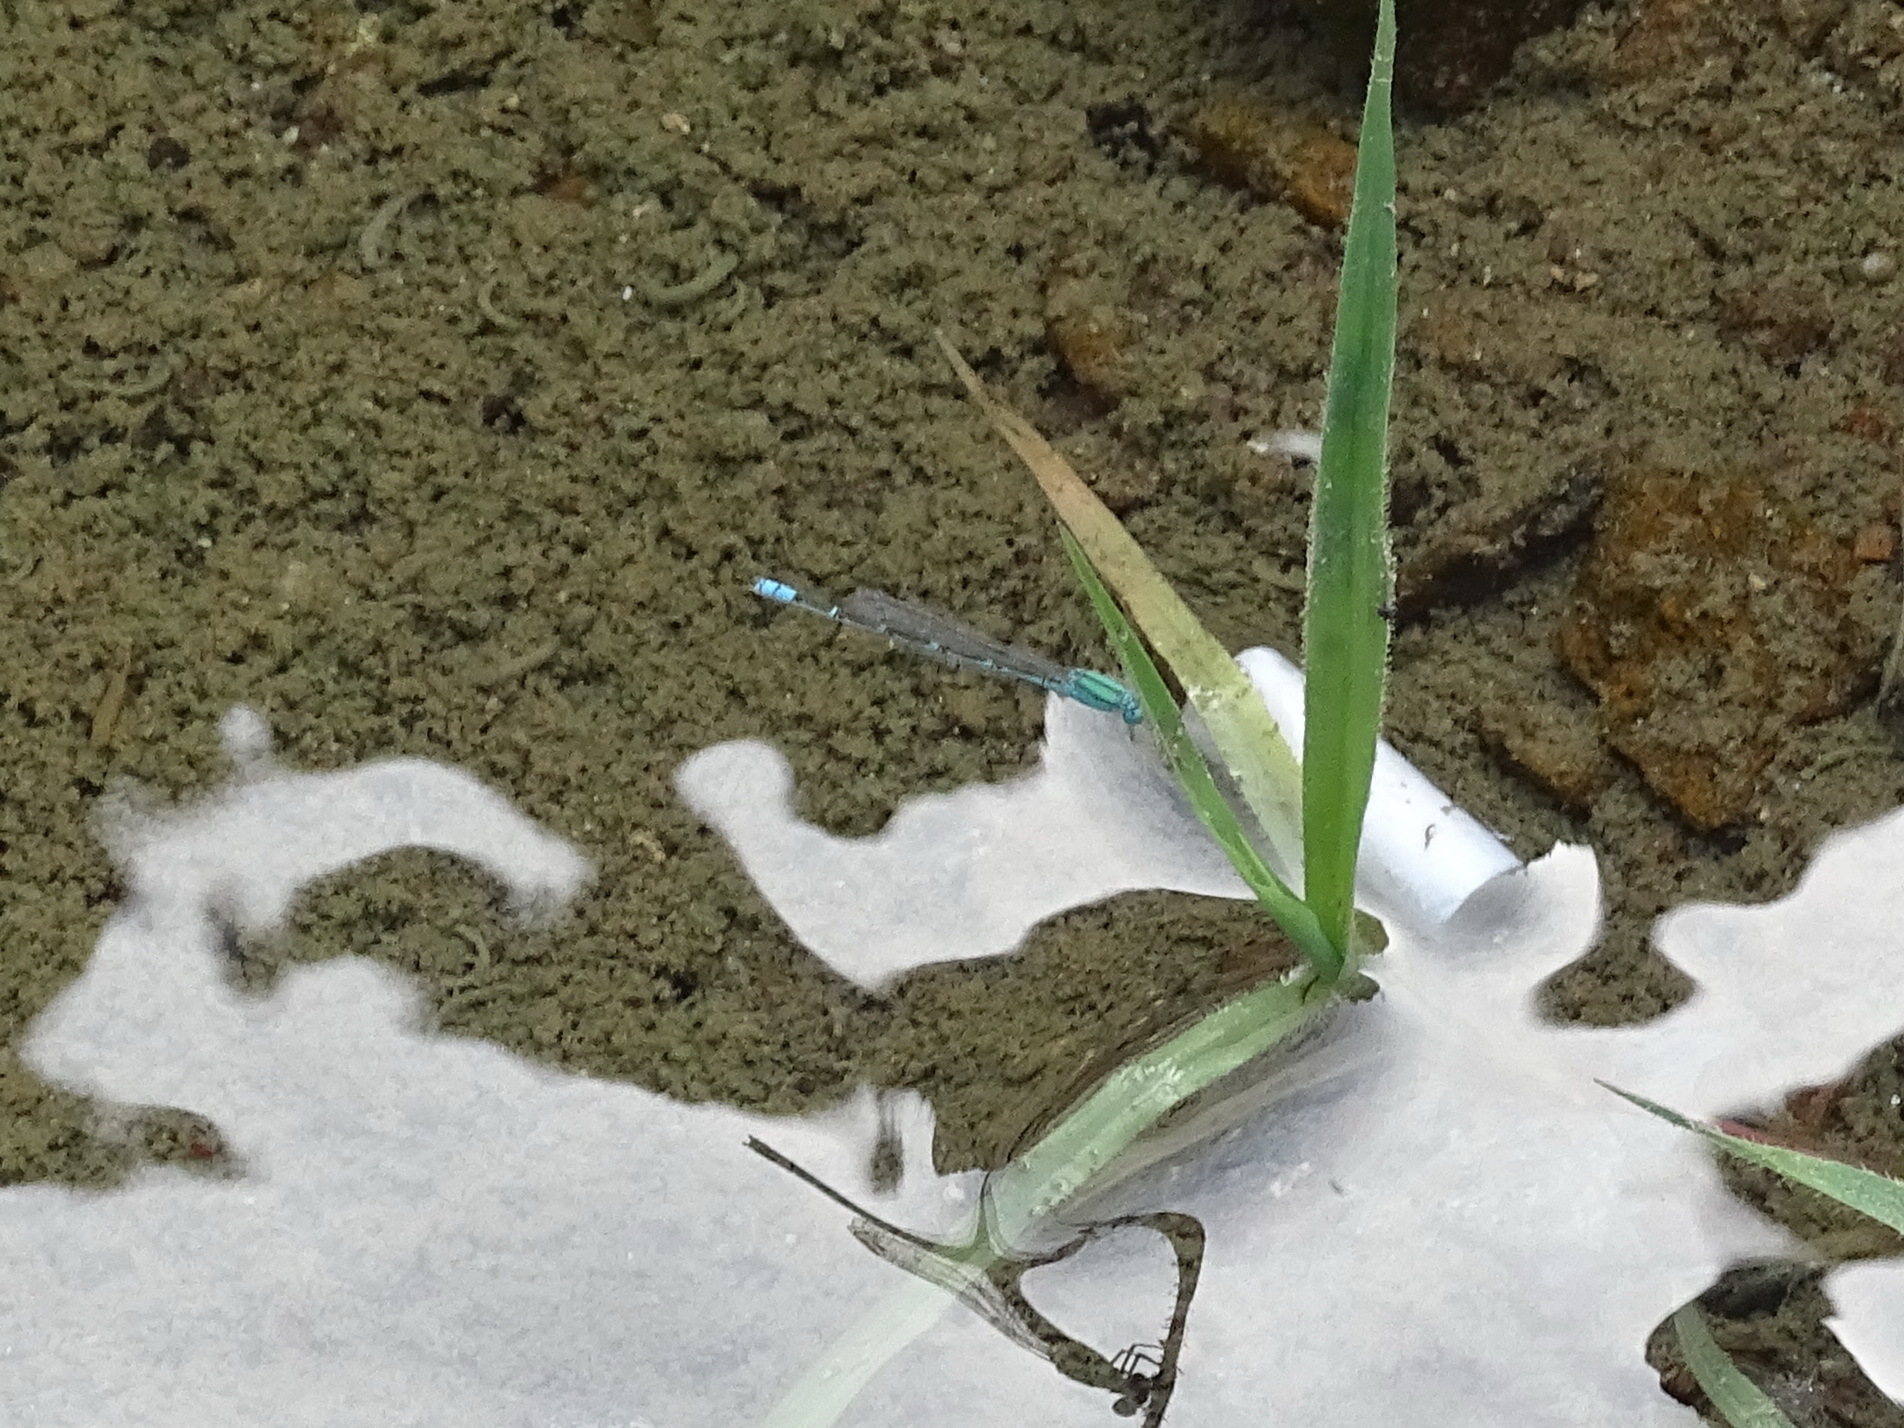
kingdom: Animalia
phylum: Arthropoda
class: Insecta
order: Odonata
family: Coenagrionidae
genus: Pseudagrion
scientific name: Pseudagrion decorum
